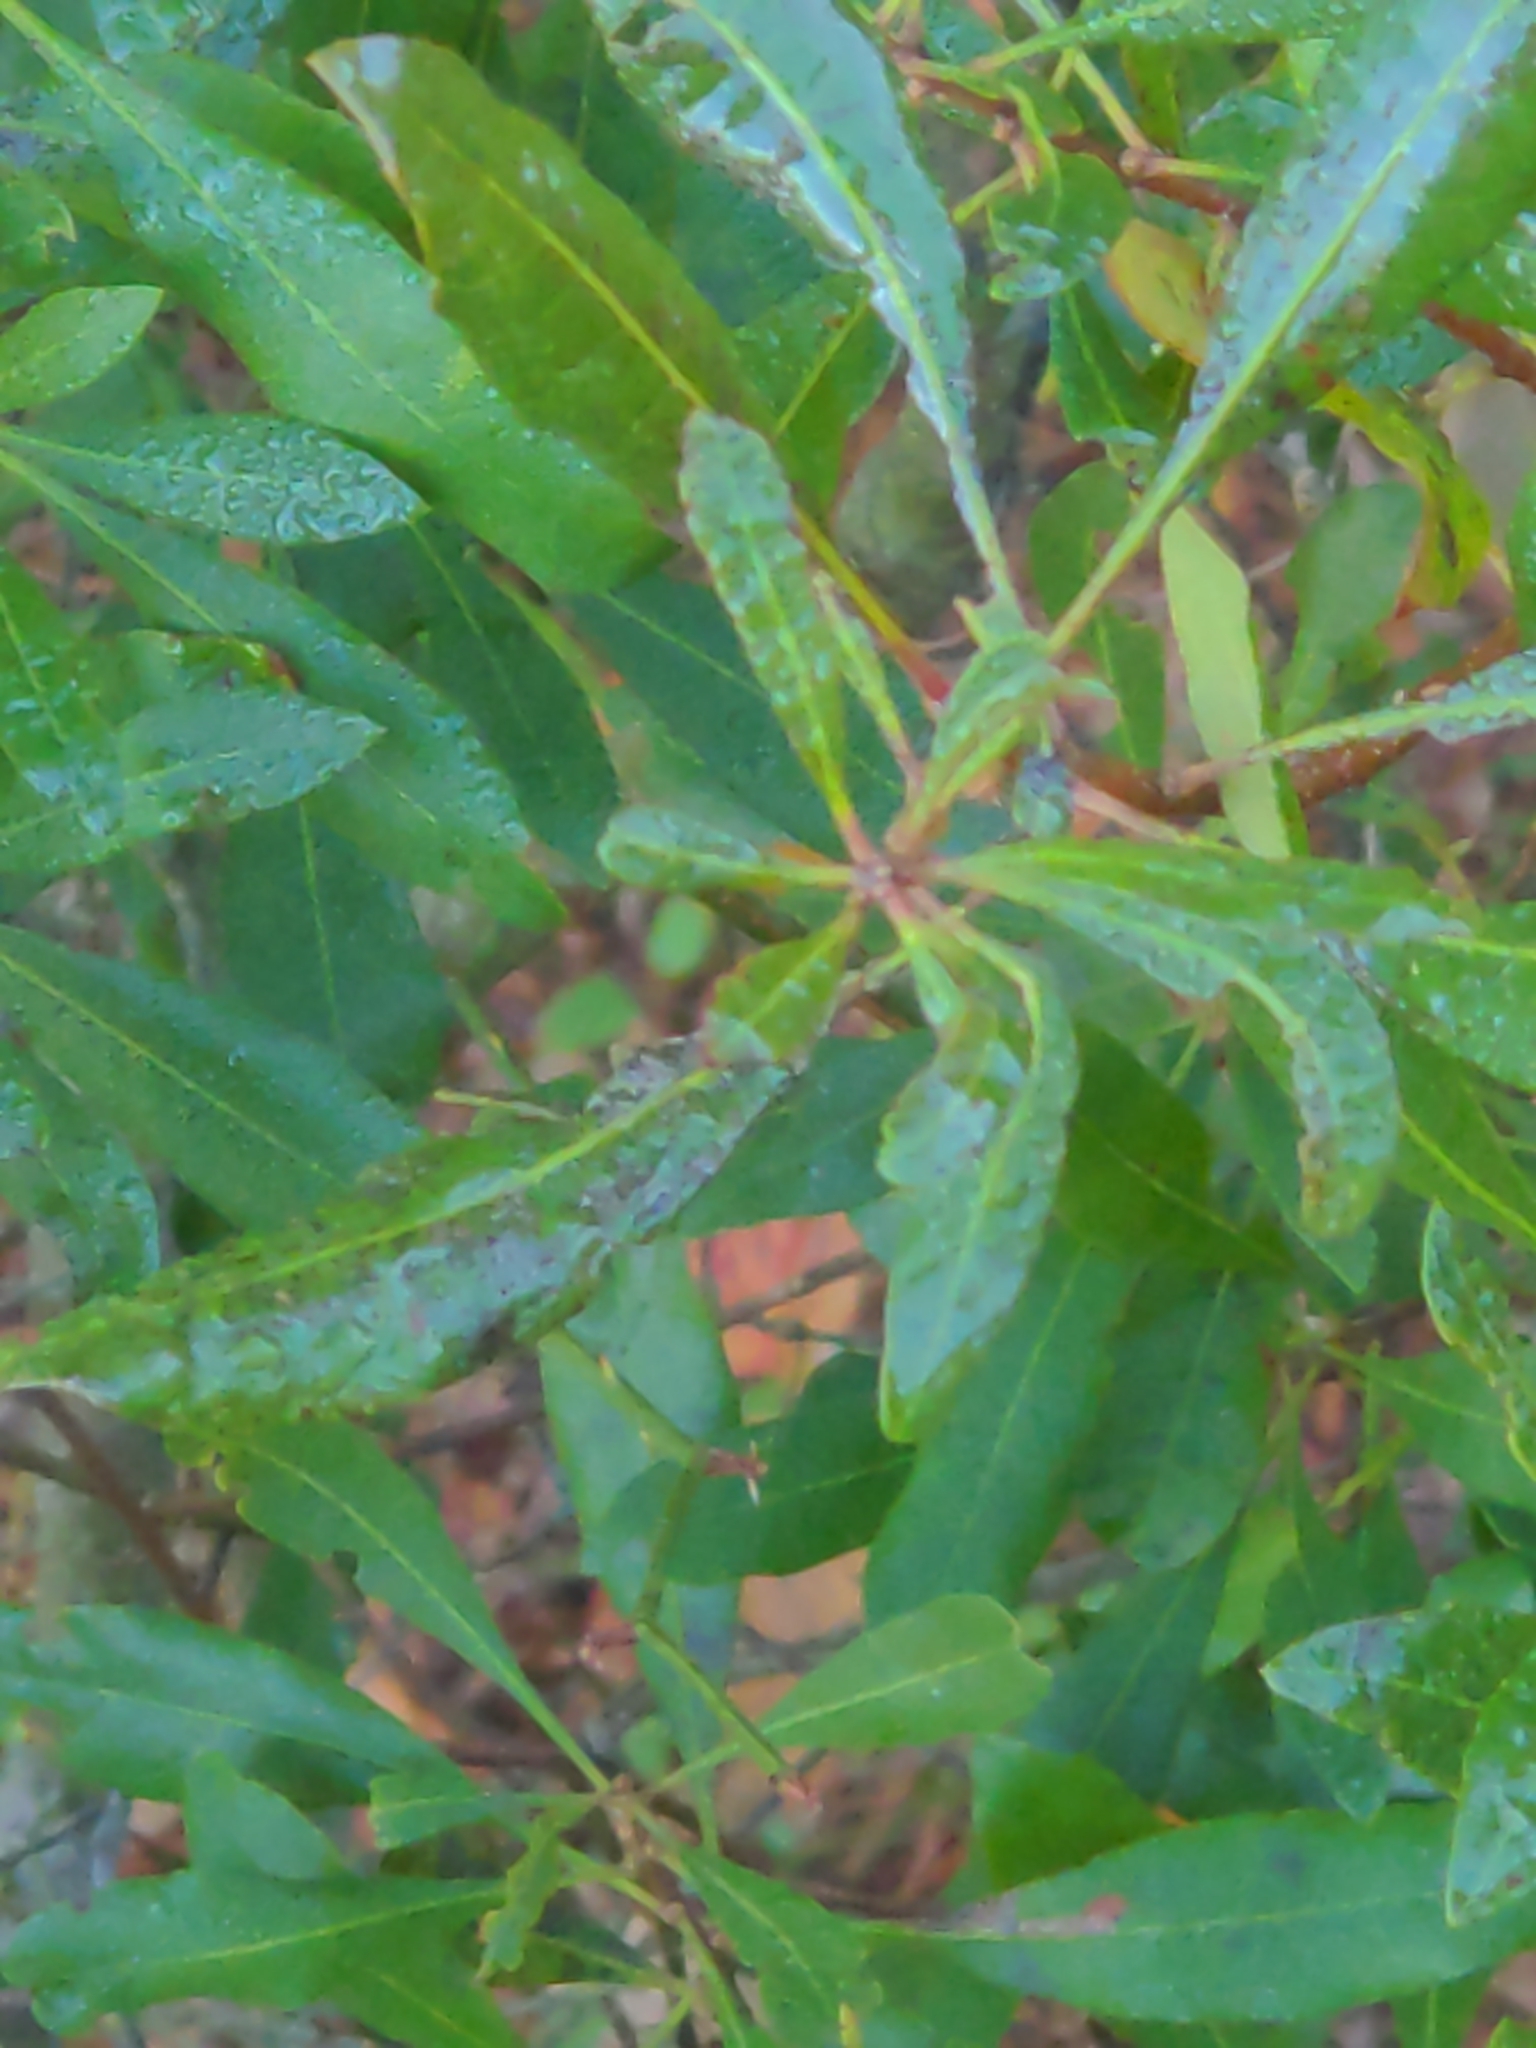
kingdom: Plantae
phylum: Tracheophyta
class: Magnoliopsida
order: Fagales
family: Myricaceae
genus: Morella
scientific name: Morella cerifera
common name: Wax myrtle
